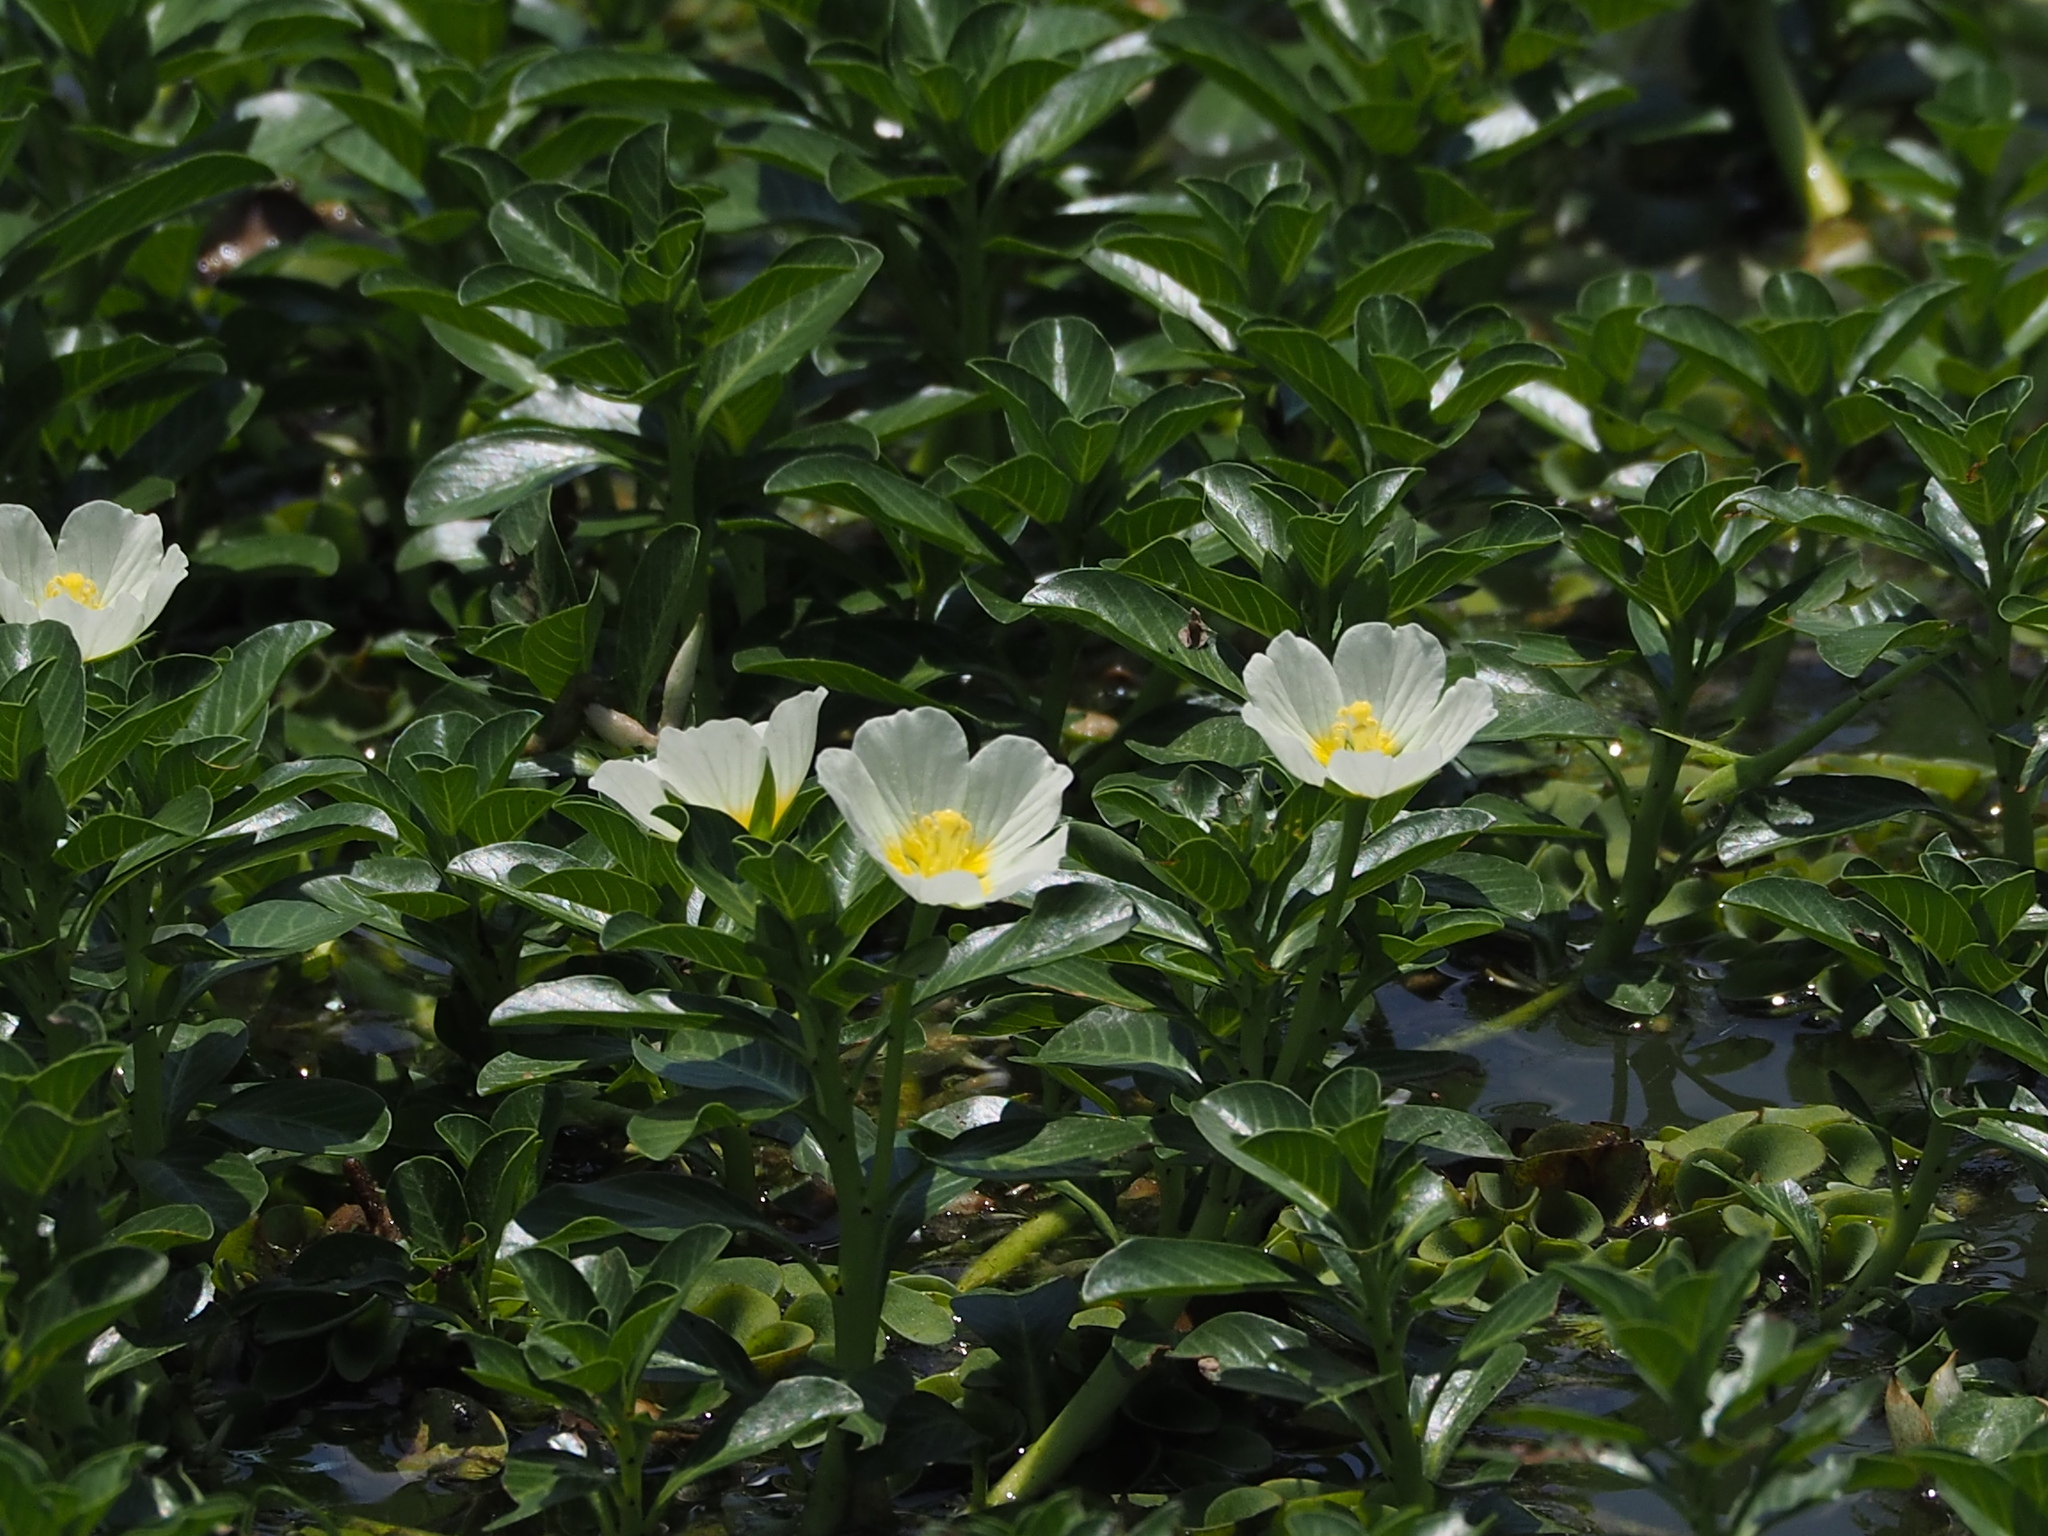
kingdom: Plantae
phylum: Tracheophyta
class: Magnoliopsida
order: Myrtales
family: Onagraceae
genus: Ludwigia
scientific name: Ludwigia adscendens
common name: Creeping water primrose
